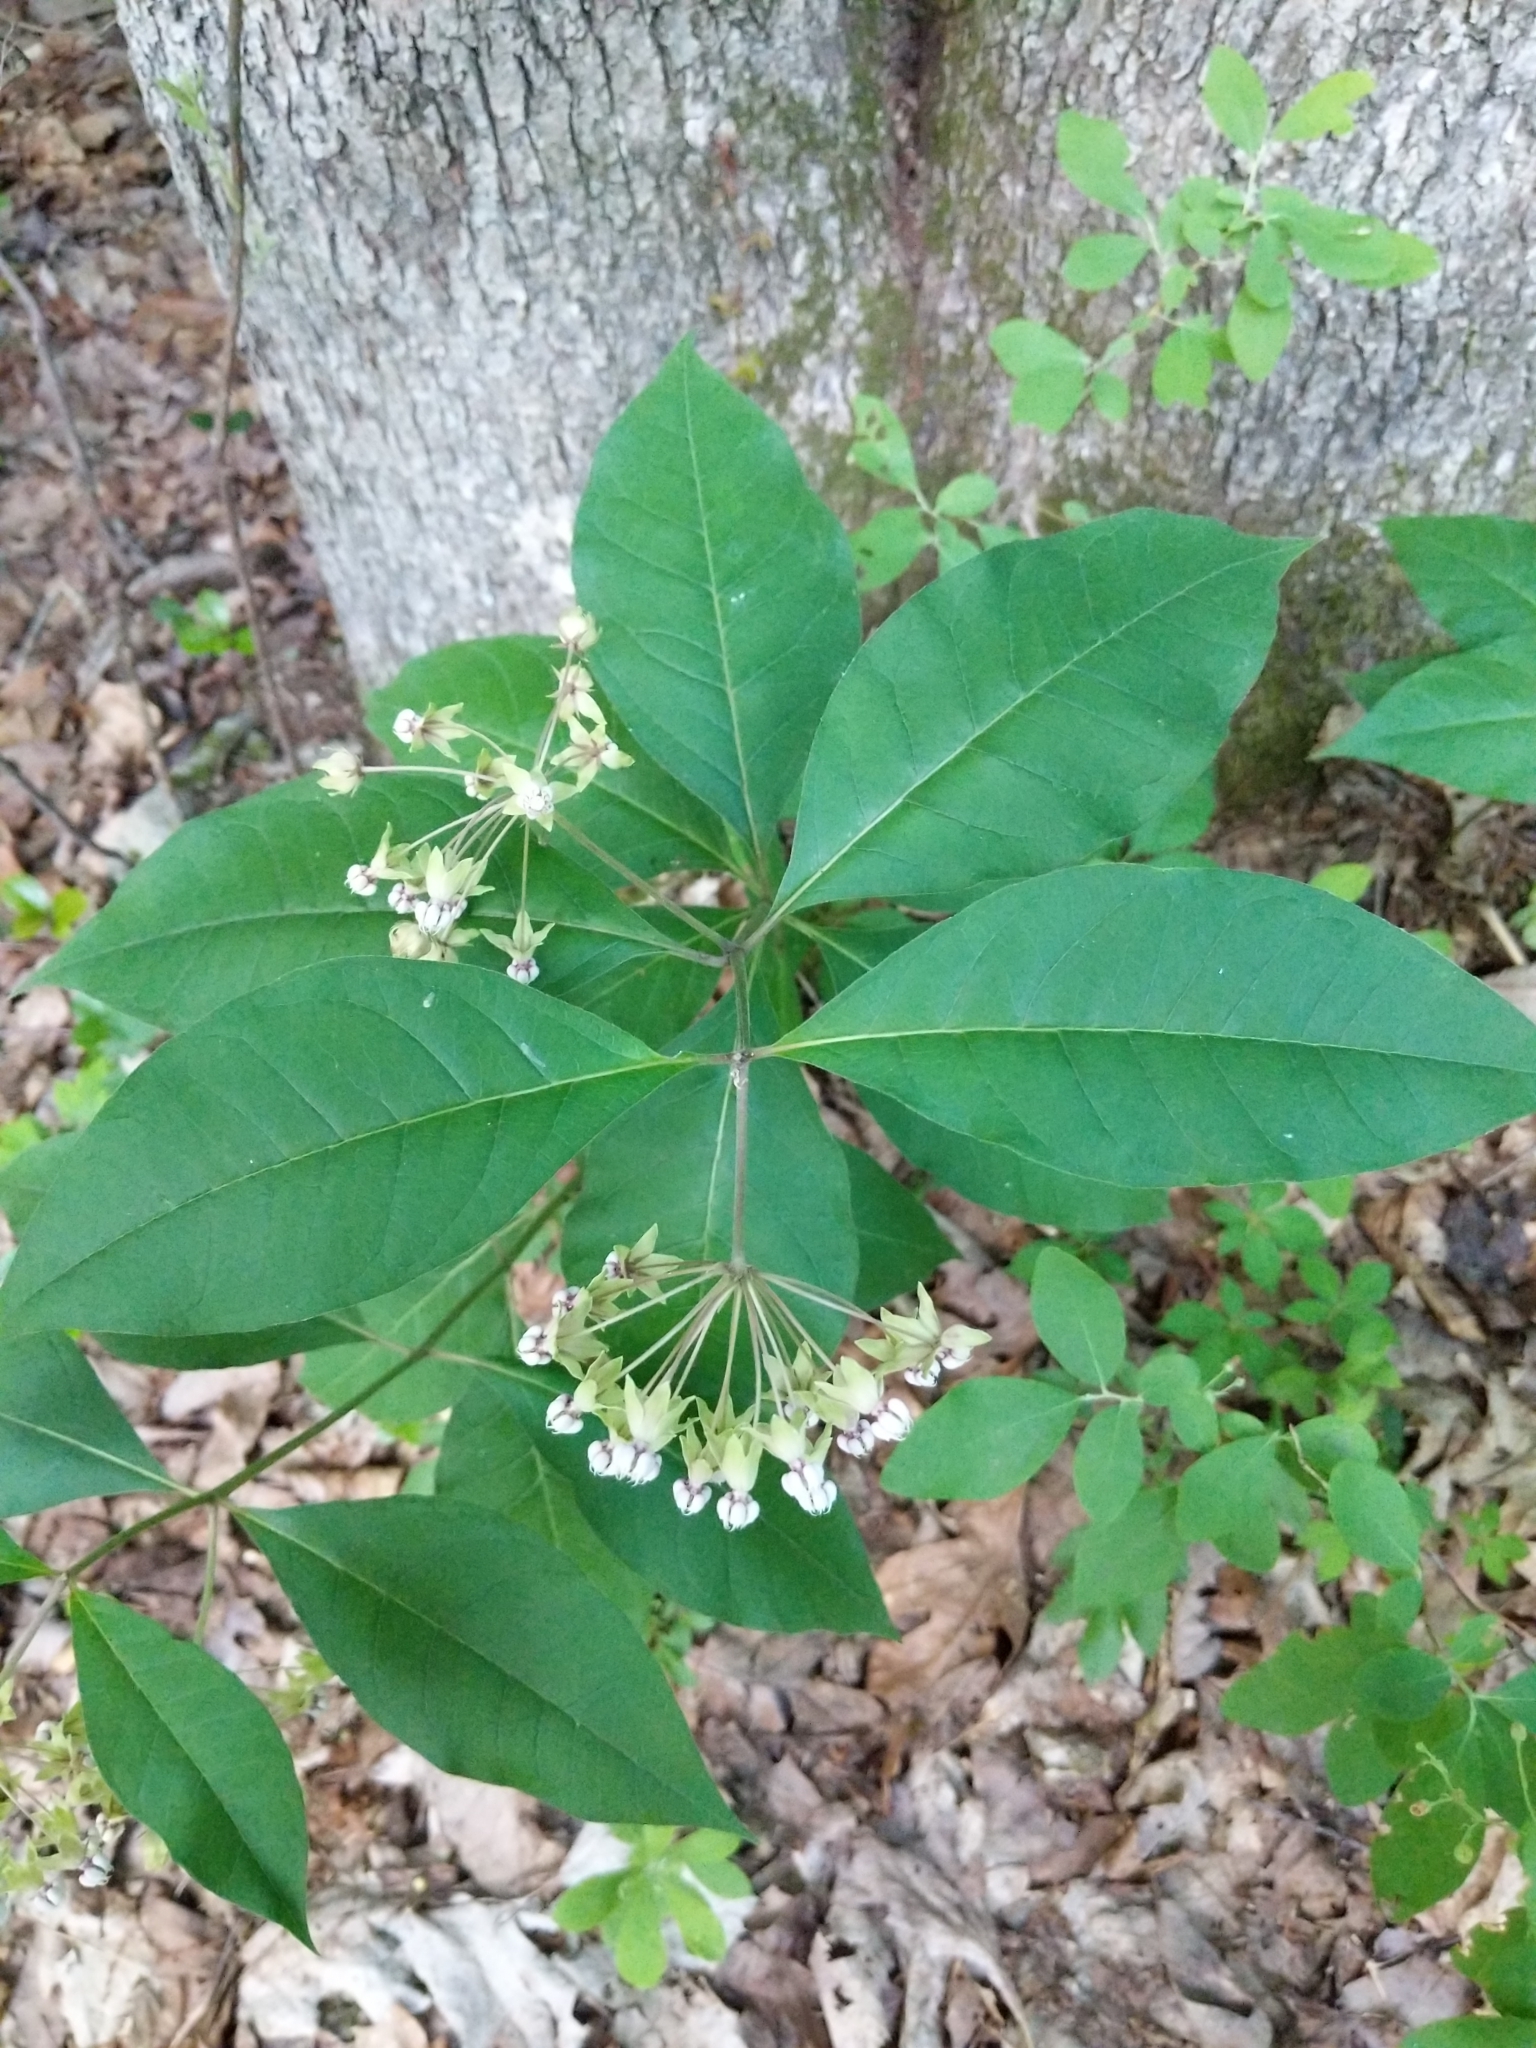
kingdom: Plantae
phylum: Tracheophyta
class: Magnoliopsida
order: Gentianales
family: Apocynaceae
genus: Asclepias
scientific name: Asclepias exaltata
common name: Poke milkweed
